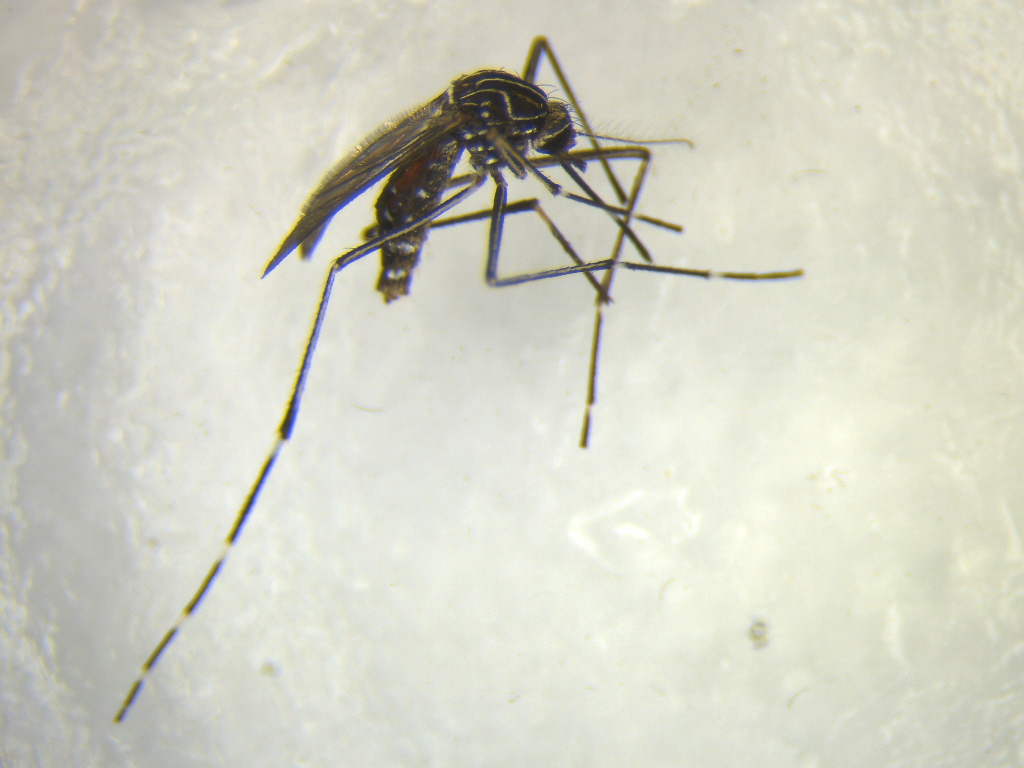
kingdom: Animalia
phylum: Arthropoda
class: Insecta
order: Diptera
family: Culicidae
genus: Aedes
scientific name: Aedes notoscriptus
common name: Australian backyard mosquito
